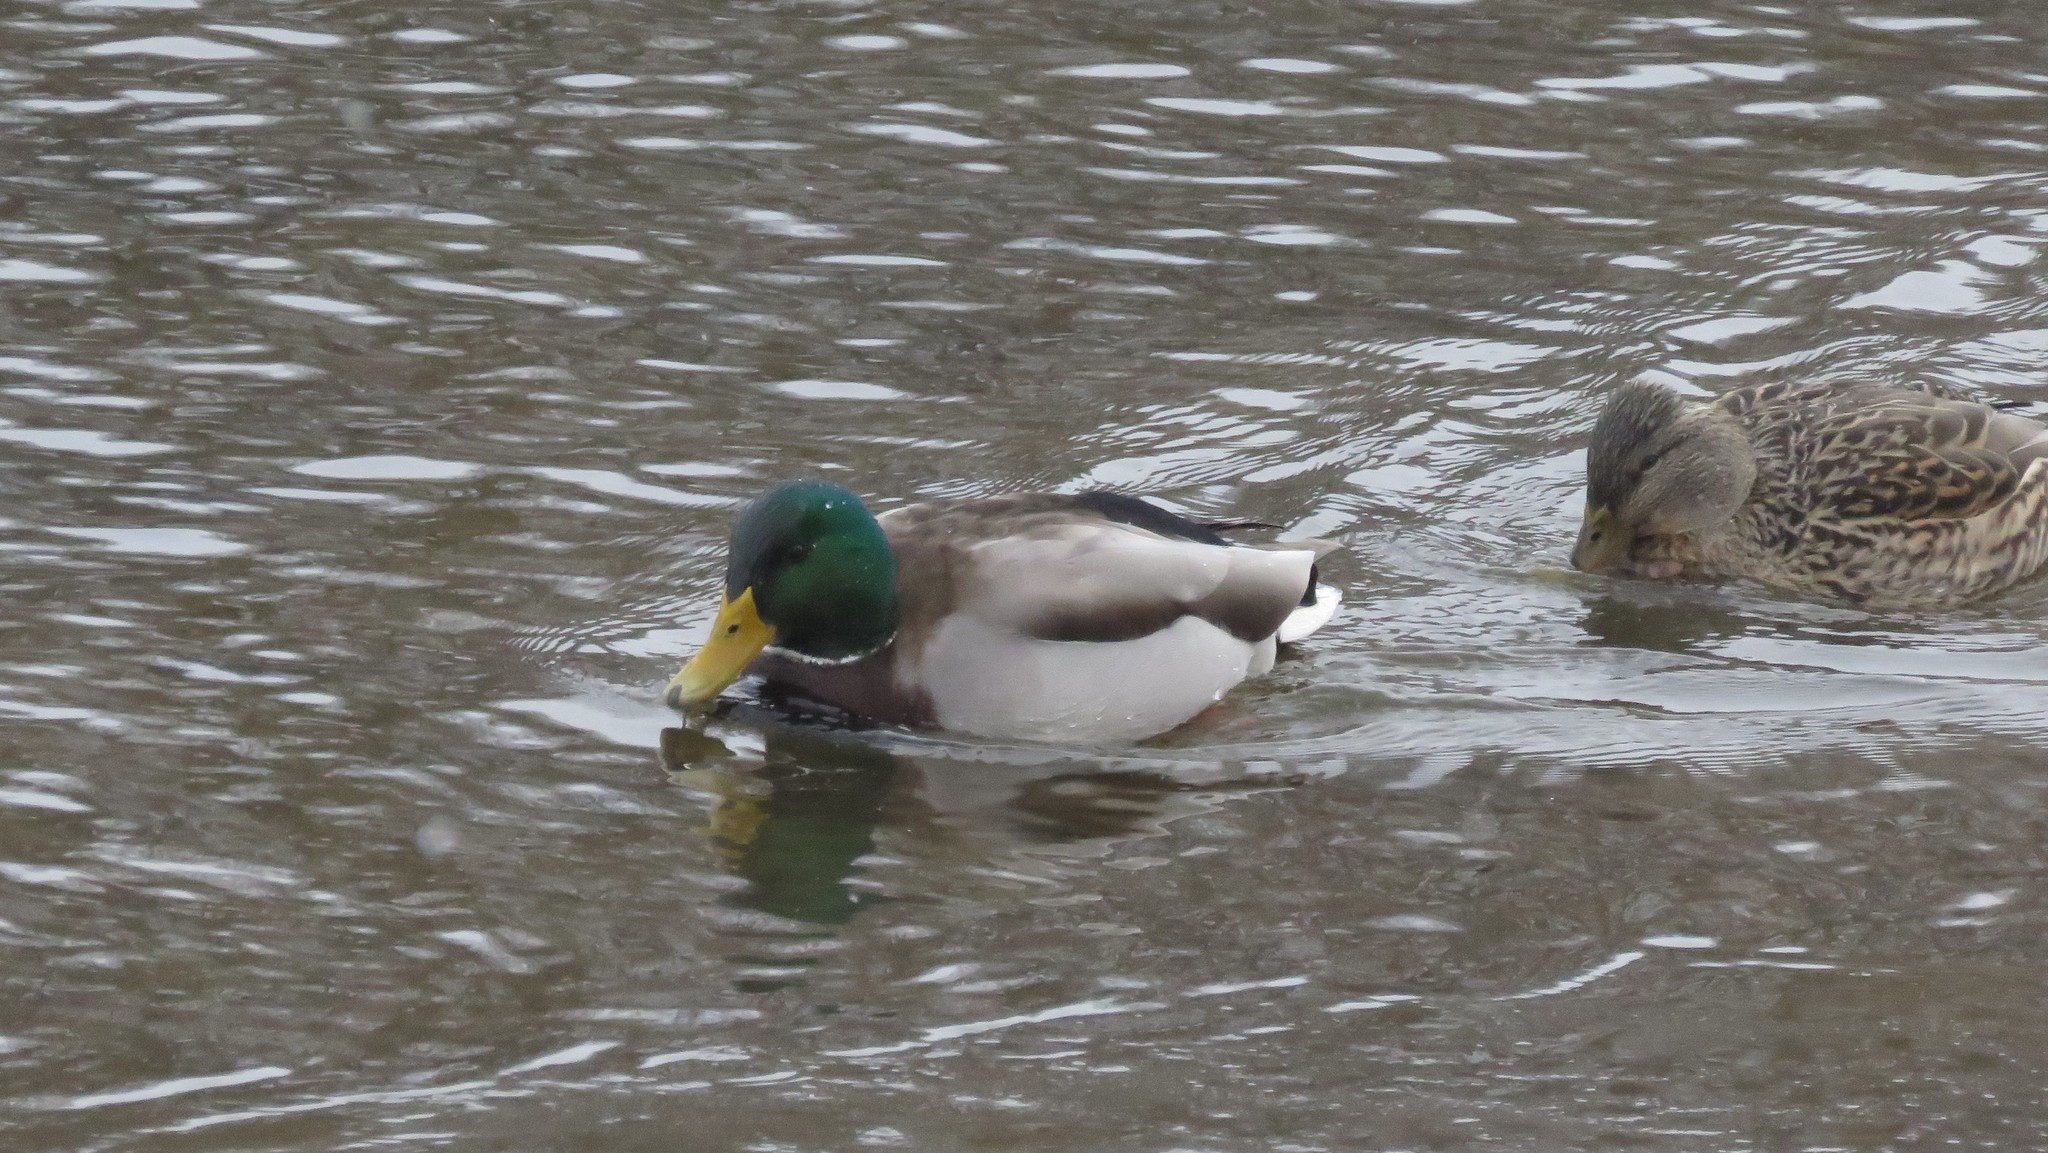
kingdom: Animalia
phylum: Chordata
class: Aves
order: Anseriformes
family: Anatidae
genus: Anas
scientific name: Anas platyrhynchos
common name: Mallard
